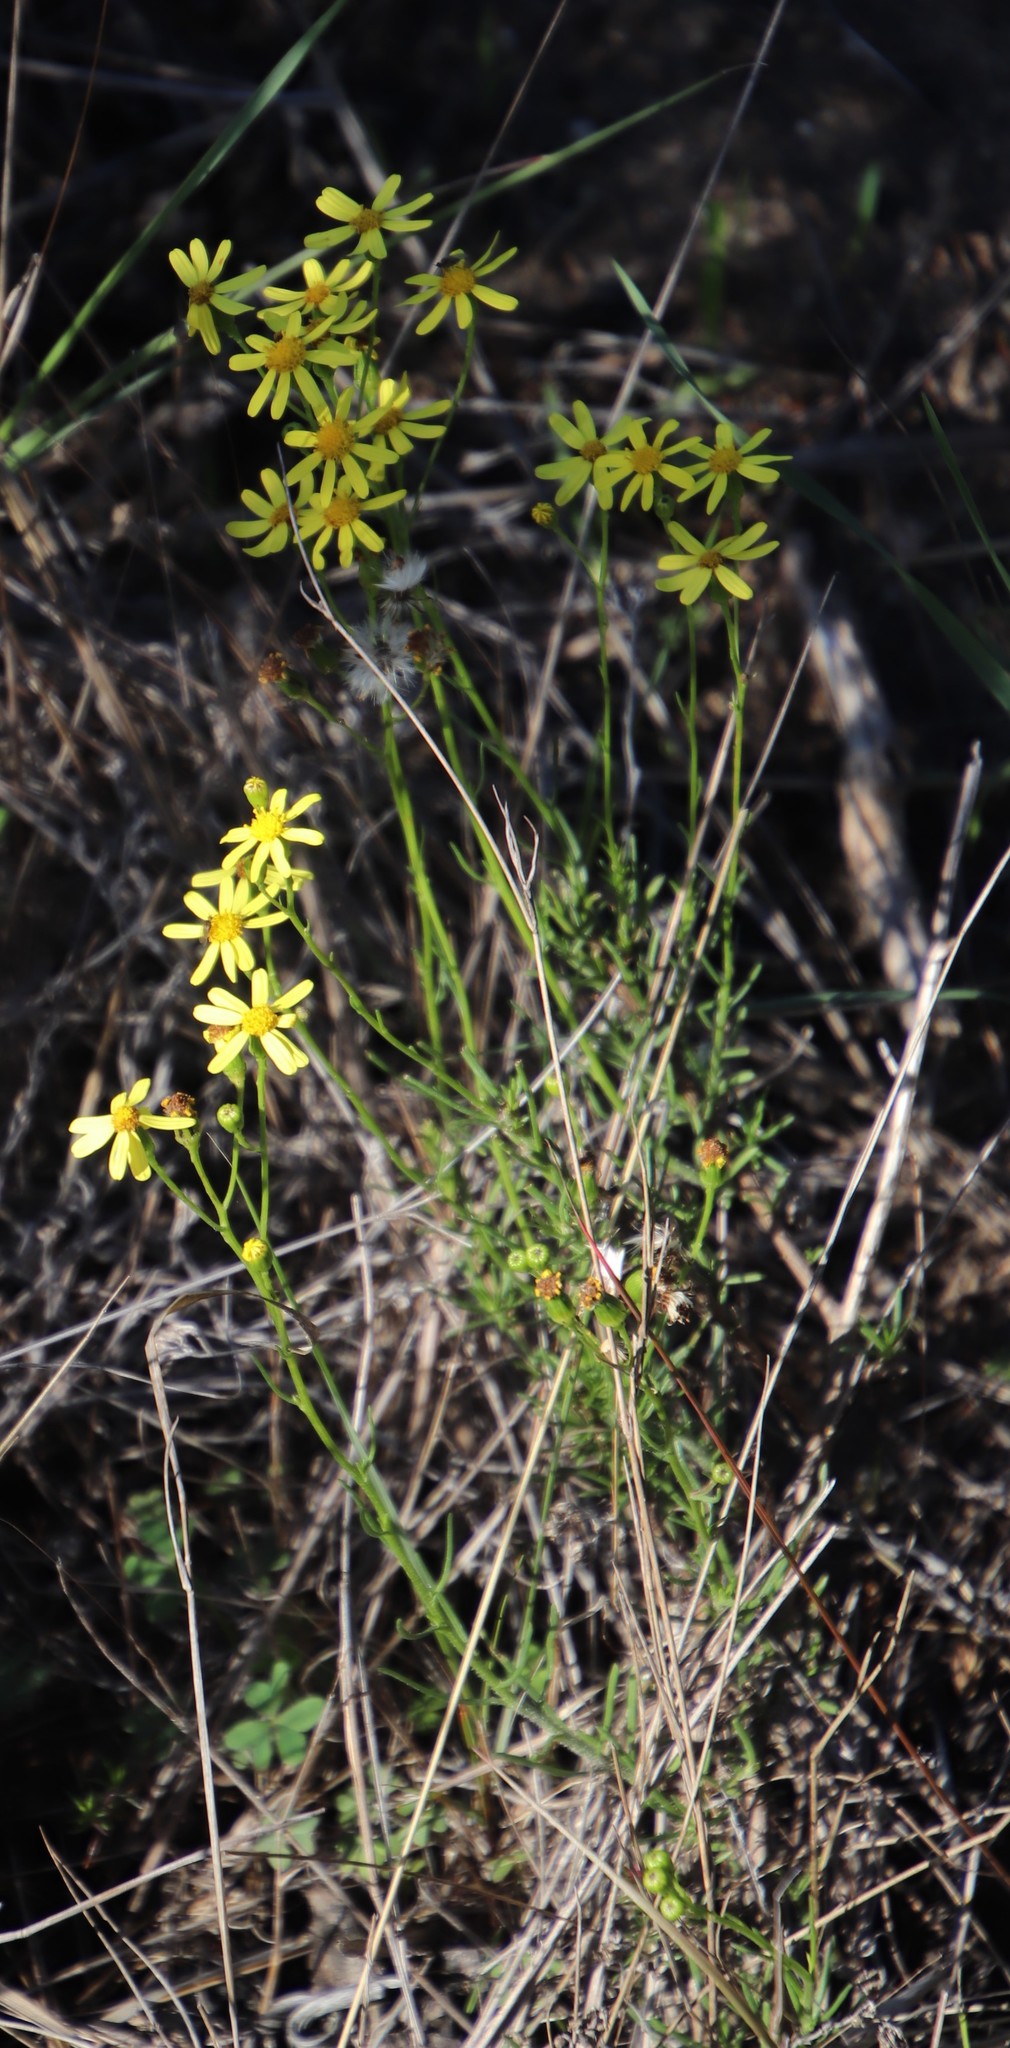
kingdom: Plantae
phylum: Tracheophyta
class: Magnoliopsida
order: Asterales
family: Asteraceae
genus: Senecio
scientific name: Senecio burchellii
